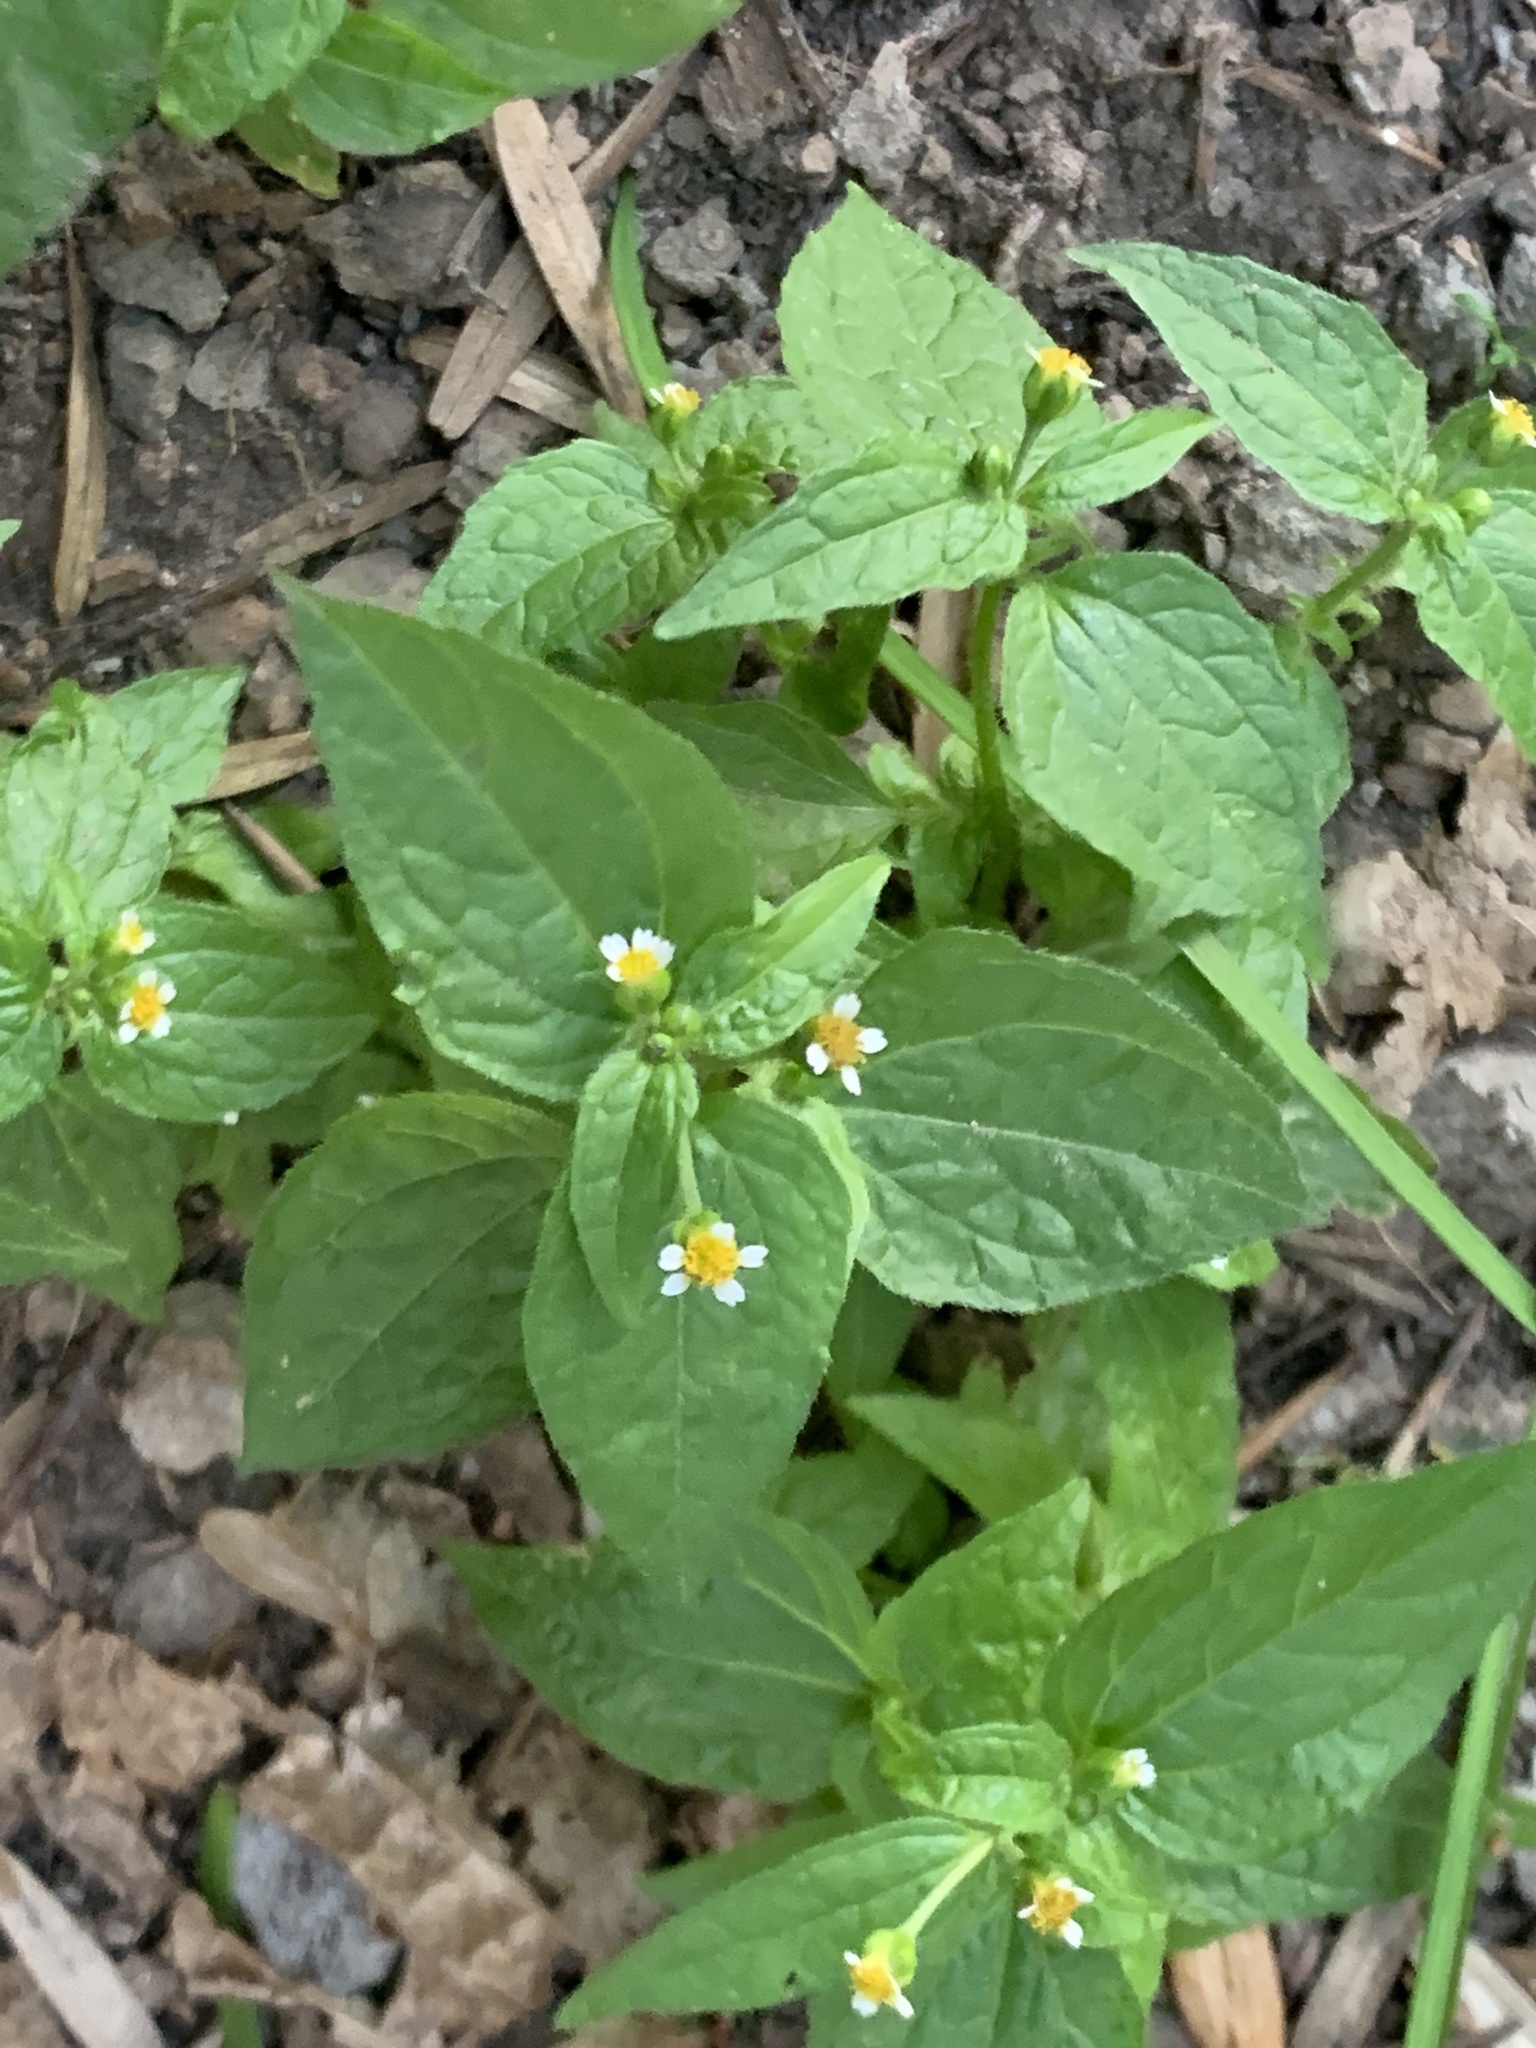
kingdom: Plantae
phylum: Tracheophyta
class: Magnoliopsida
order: Asterales
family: Asteraceae
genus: Galinsoga
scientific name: Galinsoga parviflora
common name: Gallant soldier
